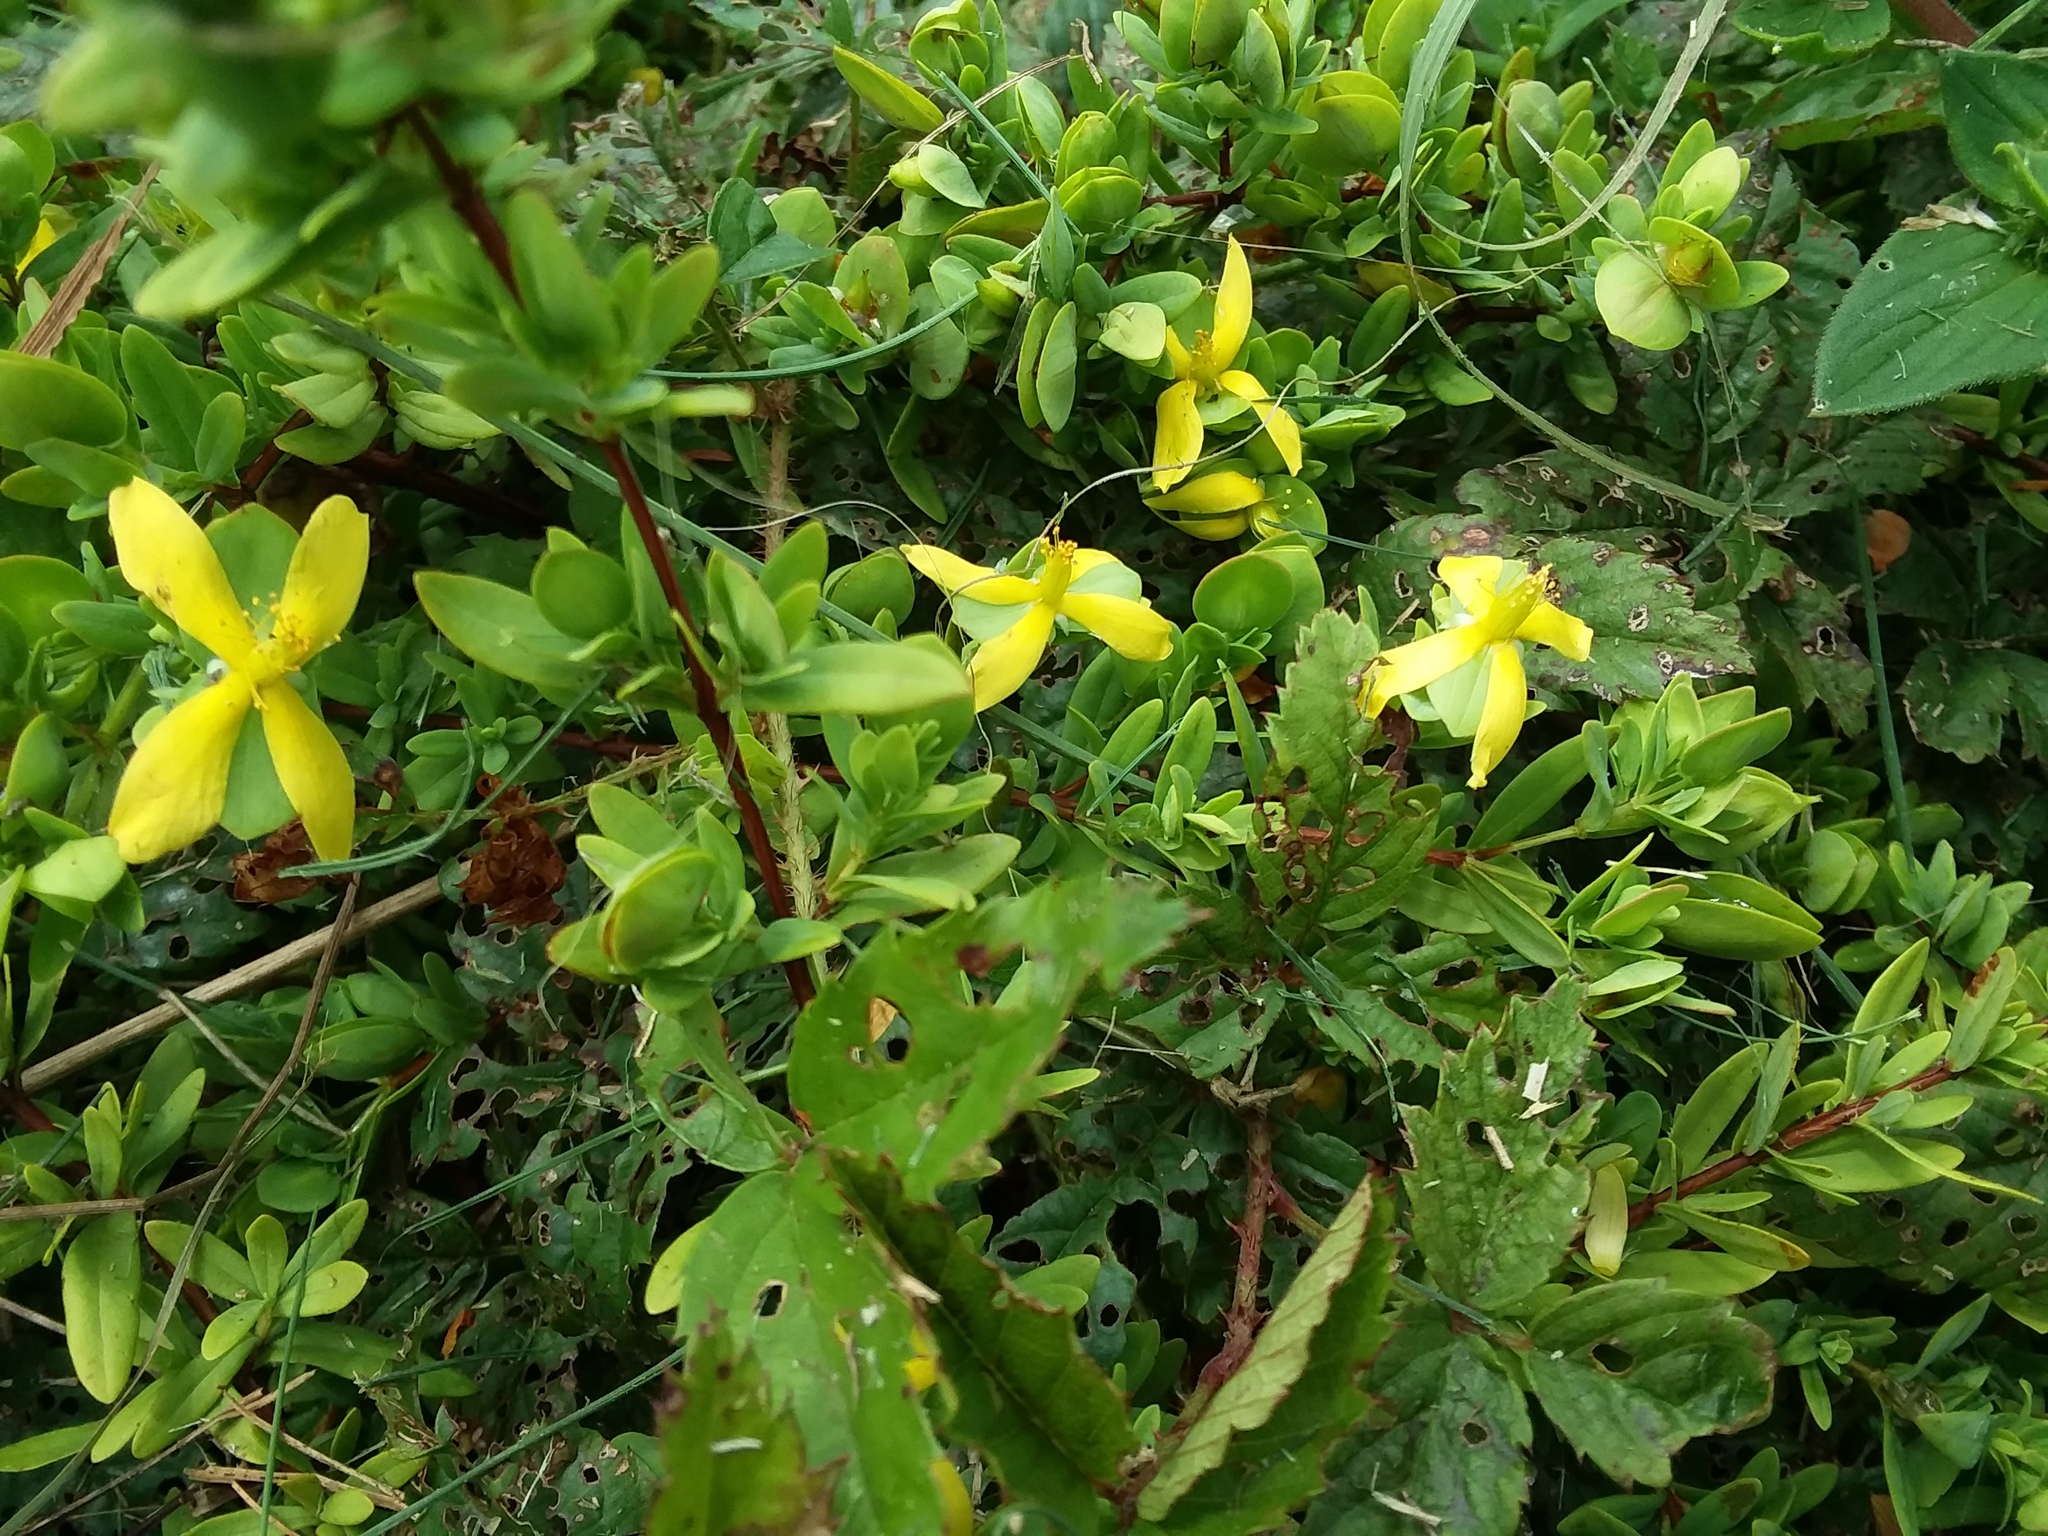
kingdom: Plantae
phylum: Tracheophyta
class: Magnoliopsida
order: Malpighiales
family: Hypericaceae
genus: Hypericum
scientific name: Hypericum hypericoides
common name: St. andrew's cross
